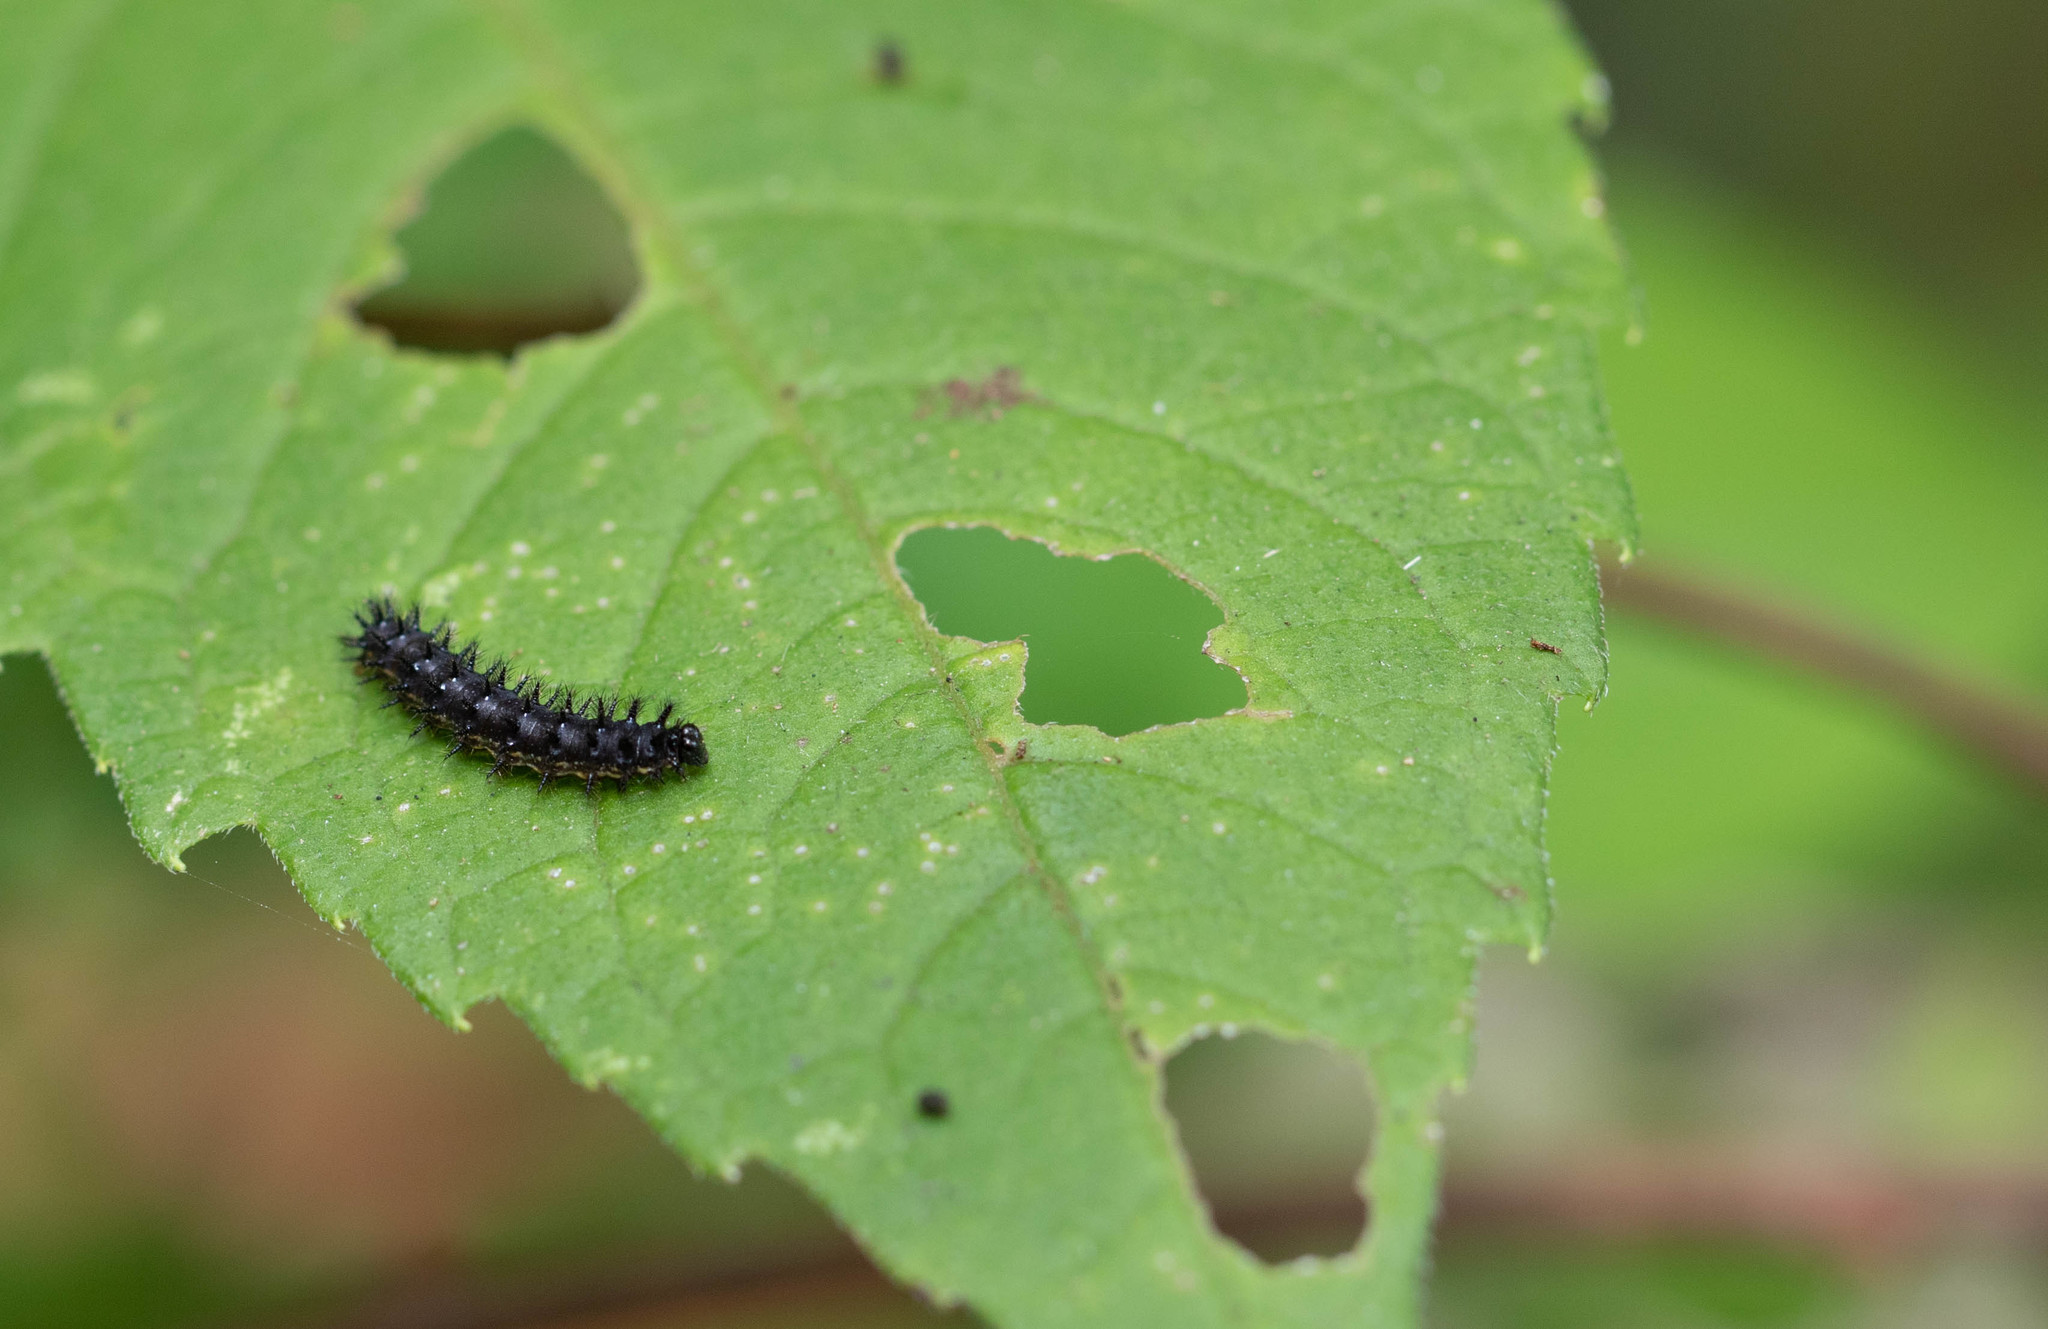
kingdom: Animalia
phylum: Arthropoda
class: Insecta
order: Lepidoptera
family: Nymphalidae
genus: Chlosyne
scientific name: Chlosyne nycteis
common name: Silvery checkerspot
